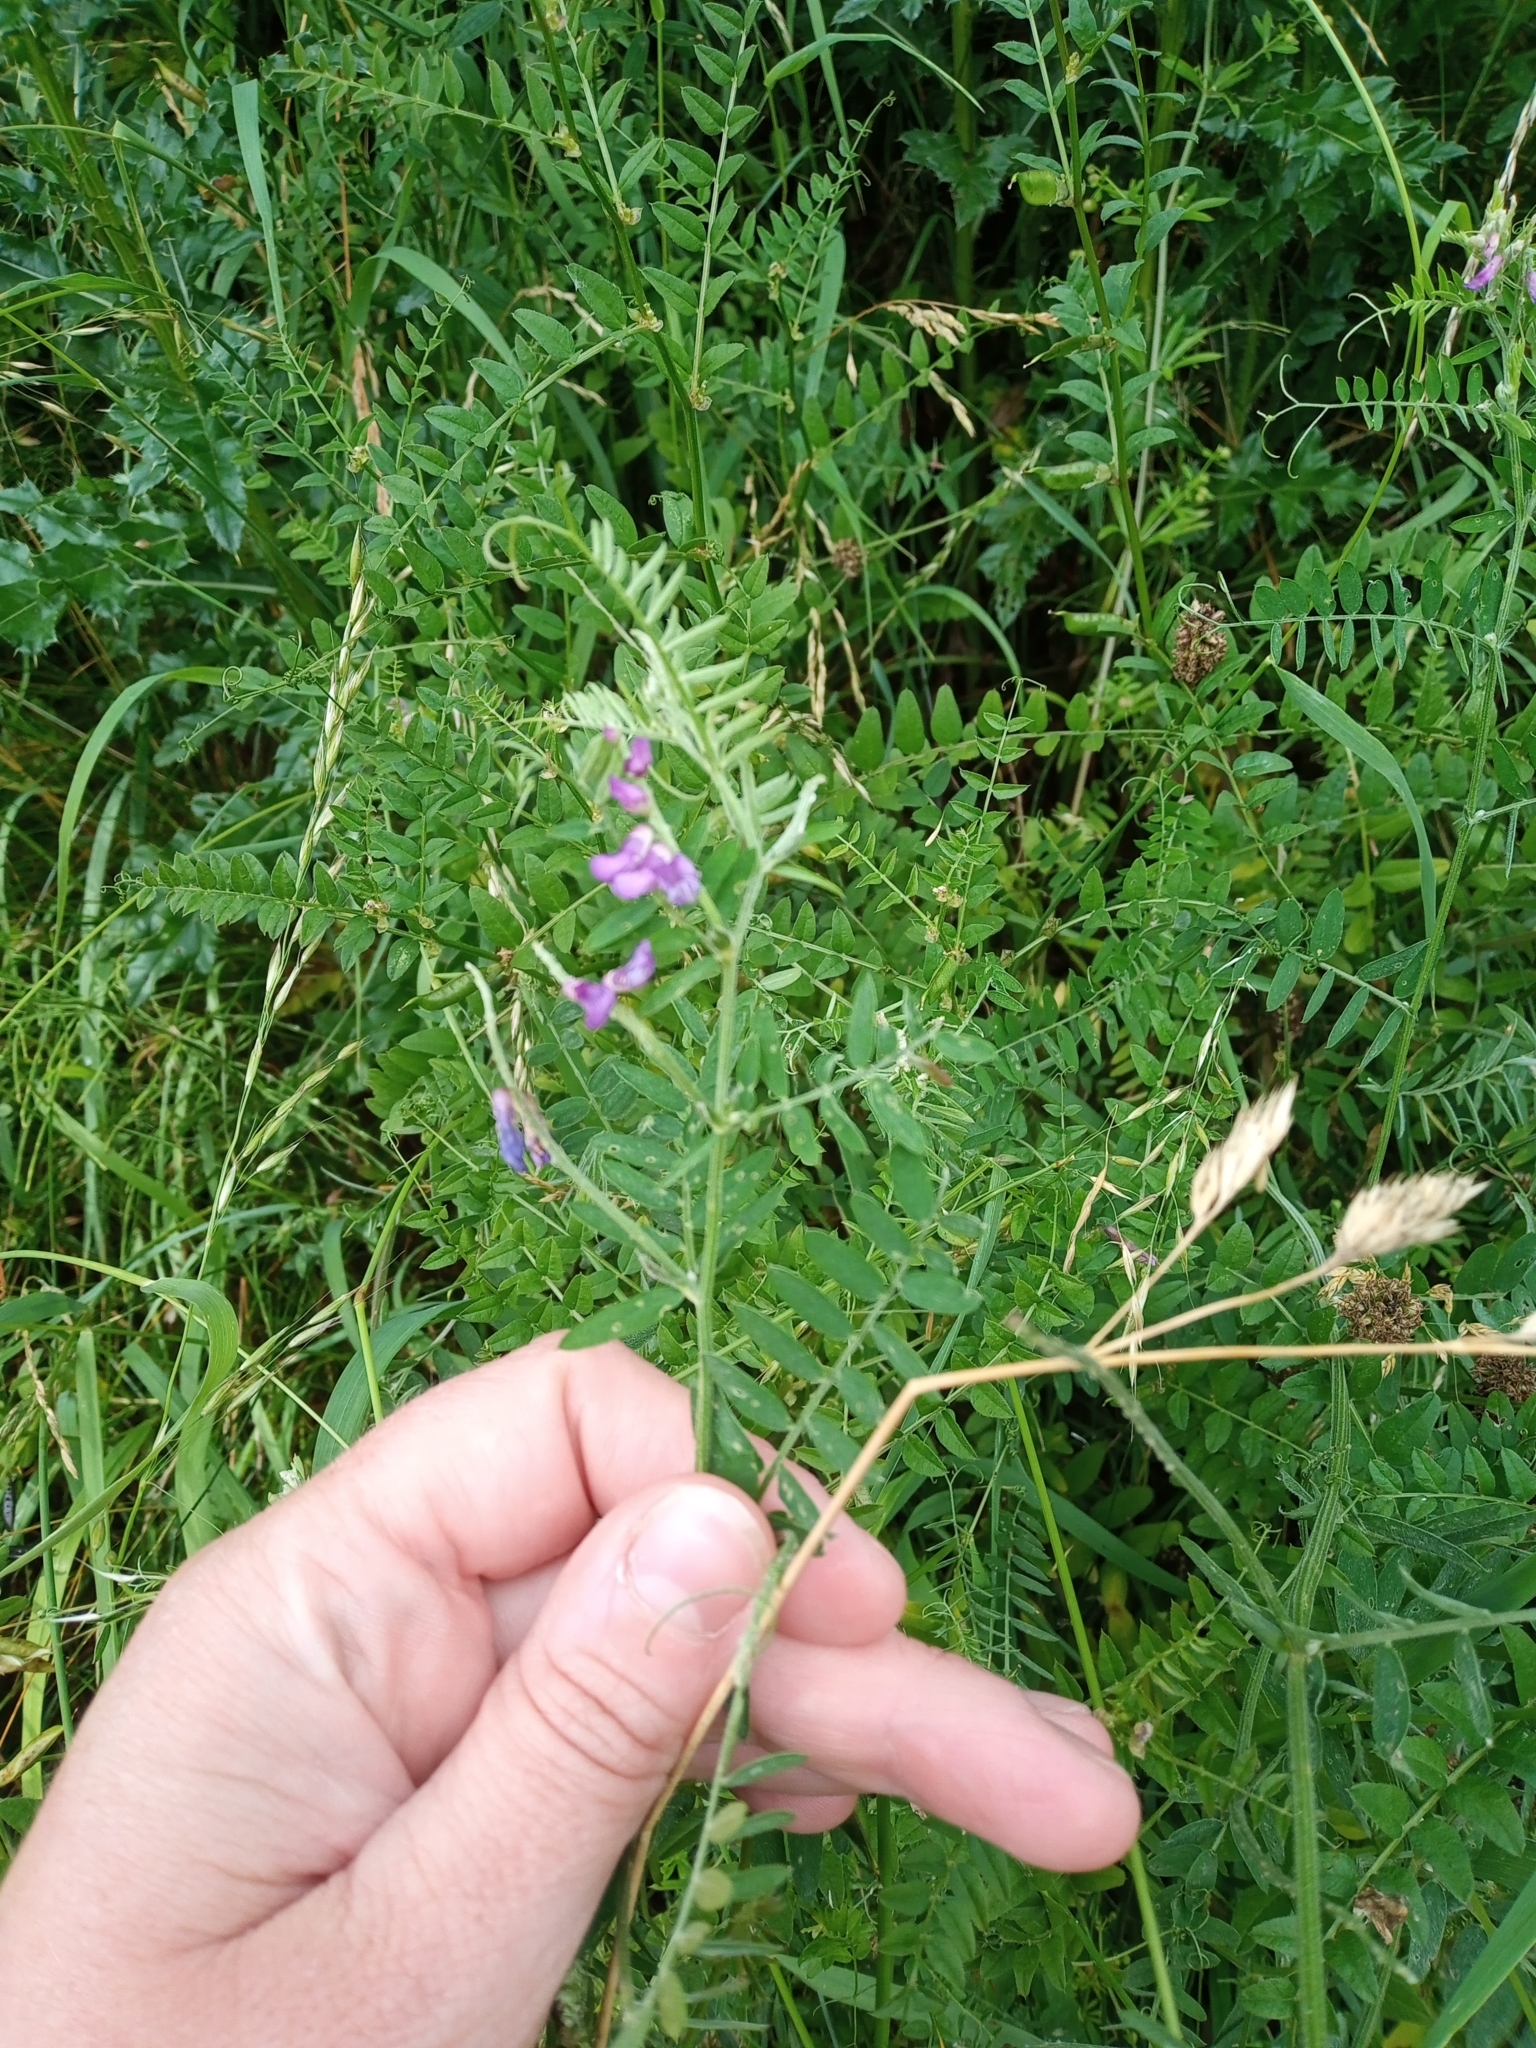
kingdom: Plantae
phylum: Tracheophyta
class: Magnoliopsida
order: Fabales
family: Fabaceae
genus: Vicia
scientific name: Vicia cracca
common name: Bird vetch
